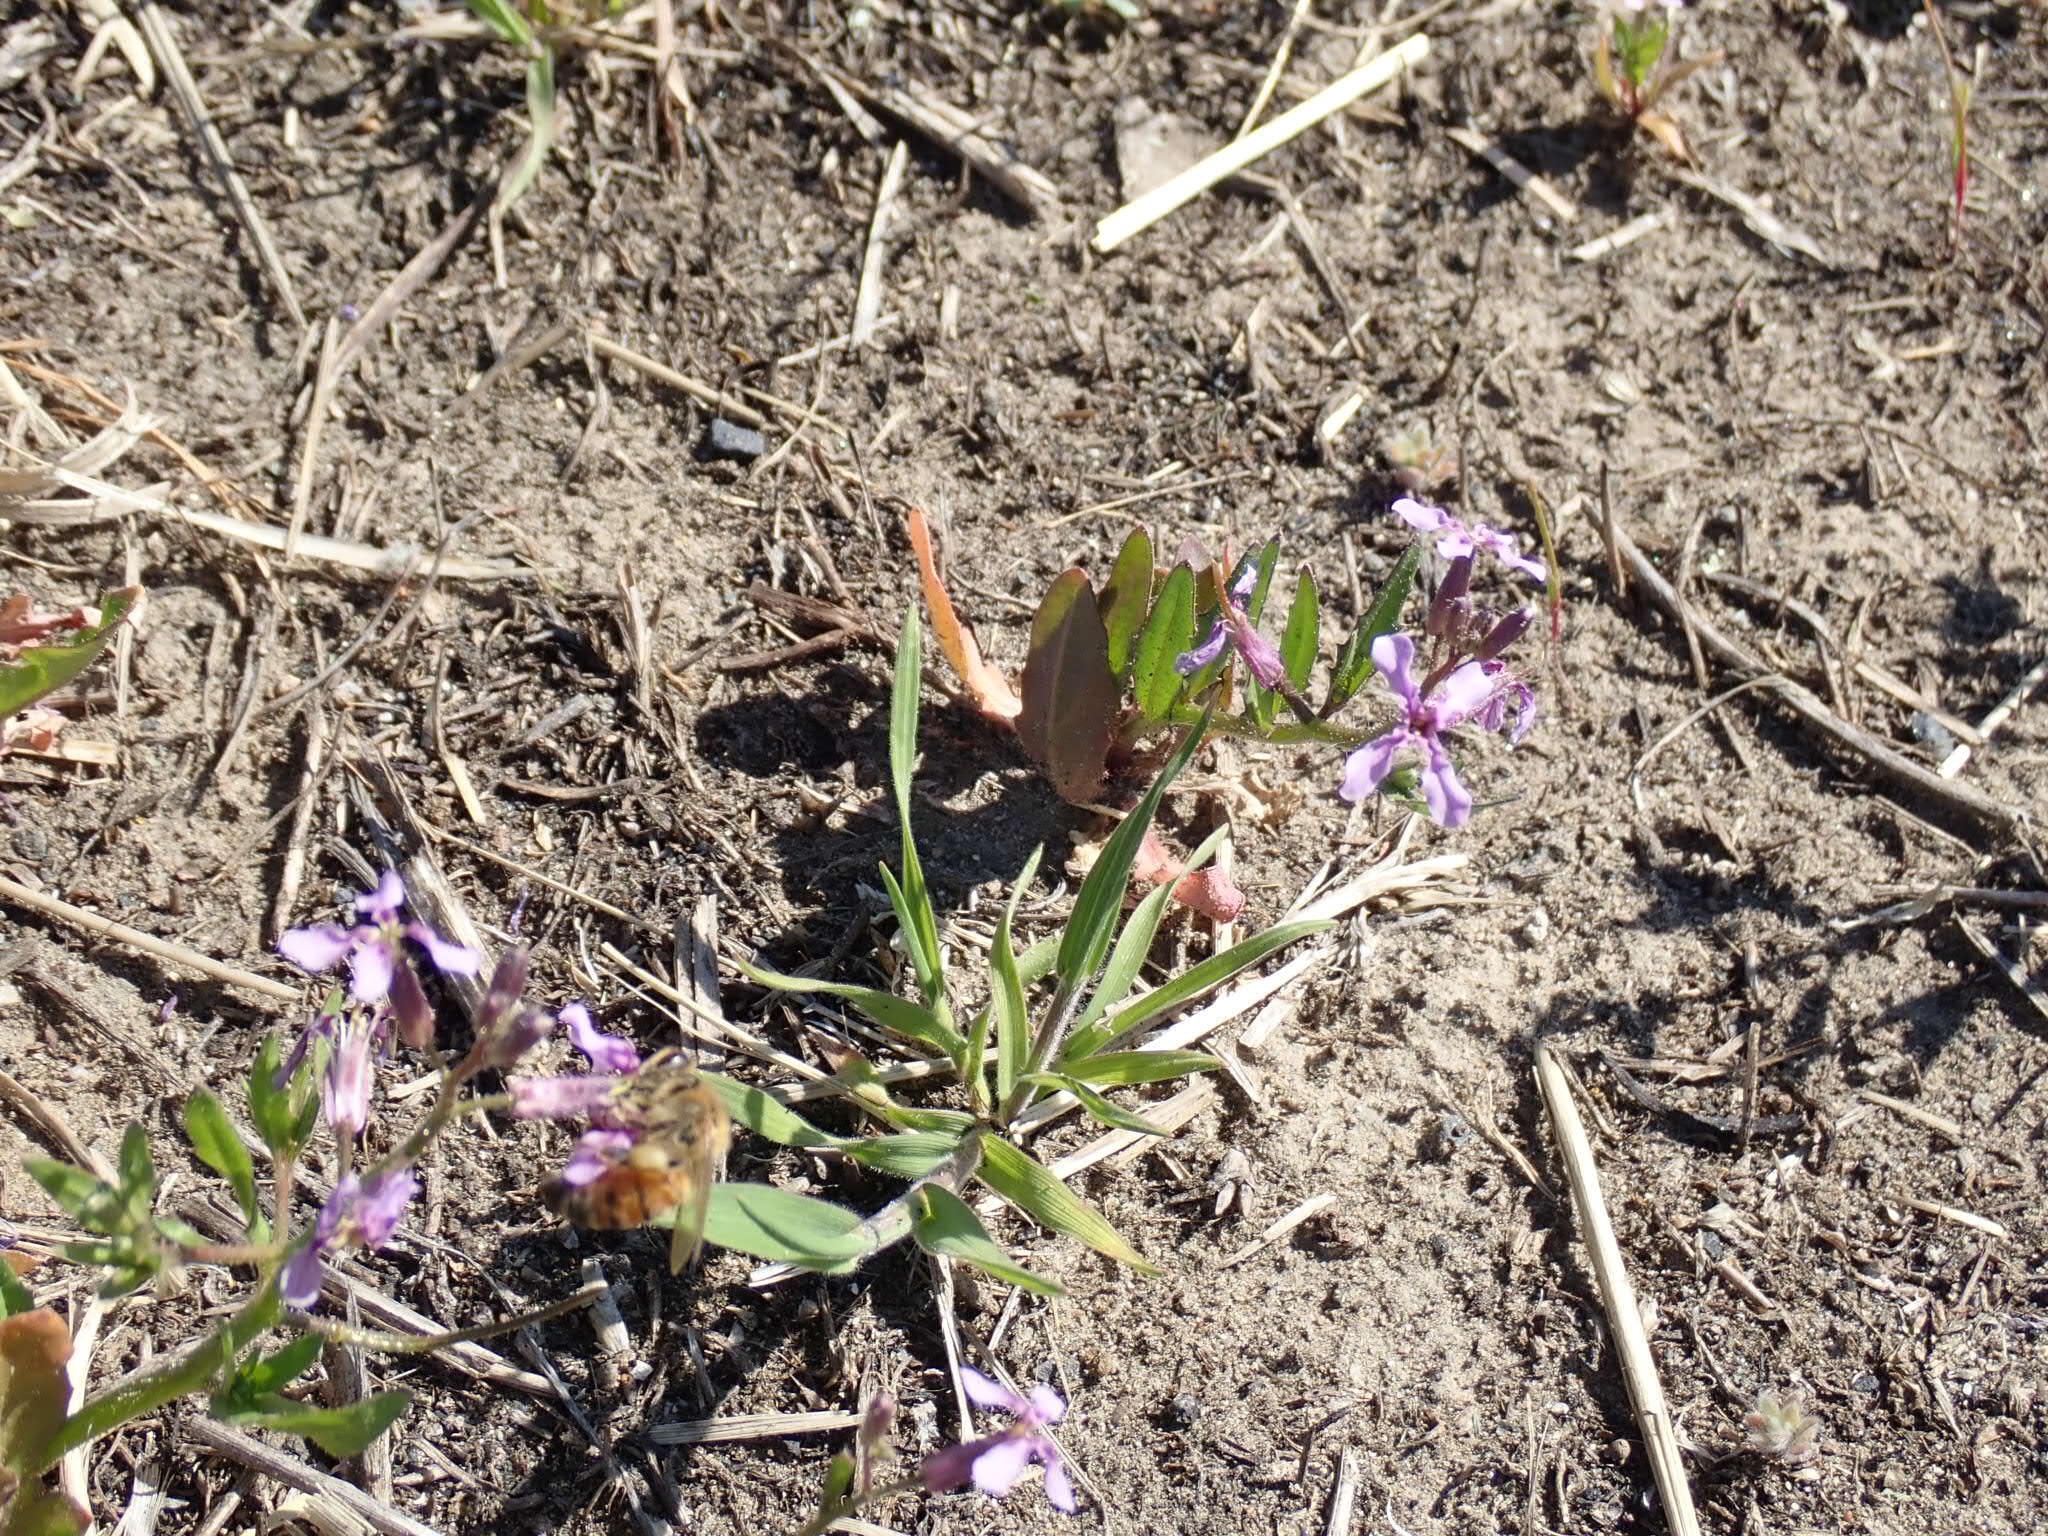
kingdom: Plantae
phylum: Tracheophyta
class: Magnoliopsida
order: Brassicales
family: Brassicaceae
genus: Chorispora
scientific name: Chorispora tenella
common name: Crossflower
